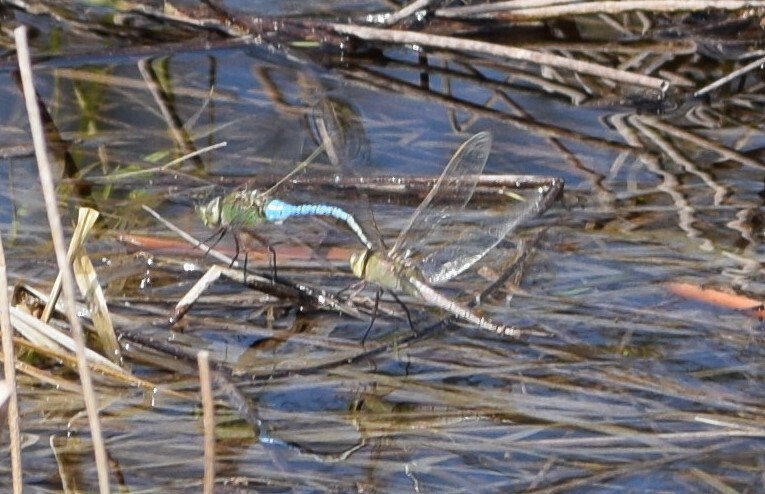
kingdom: Animalia
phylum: Arthropoda
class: Insecta
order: Odonata
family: Aeshnidae
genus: Anax
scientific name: Anax junius
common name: Common green darner
